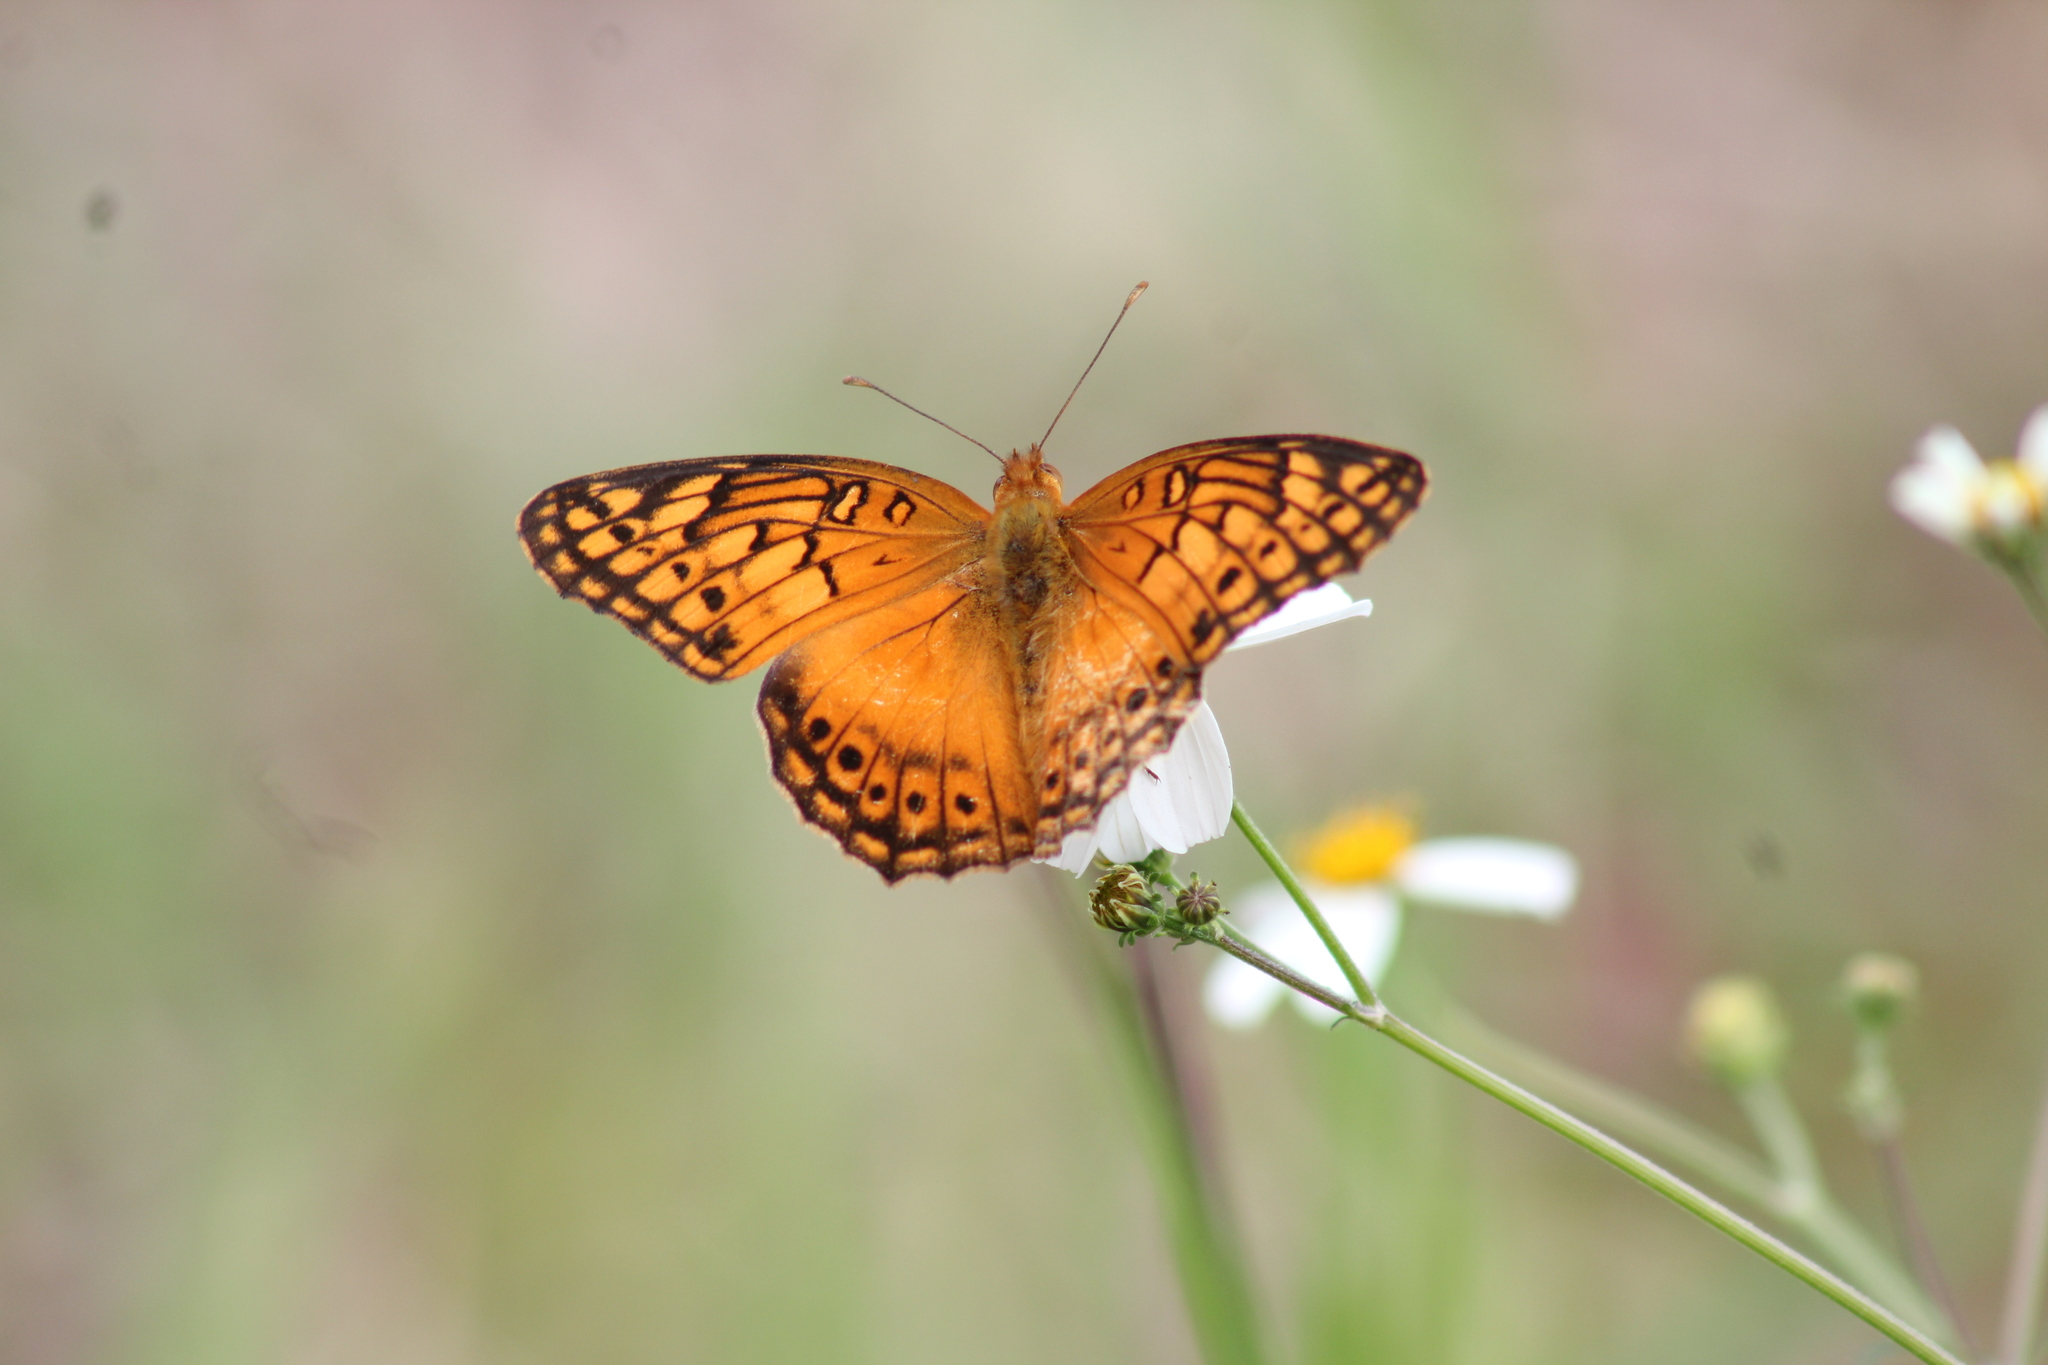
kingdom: Animalia
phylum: Arthropoda
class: Insecta
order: Lepidoptera
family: Nymphalidae
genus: Euptoieta
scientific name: Euptoieta hegesia
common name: Mexican fritillary
